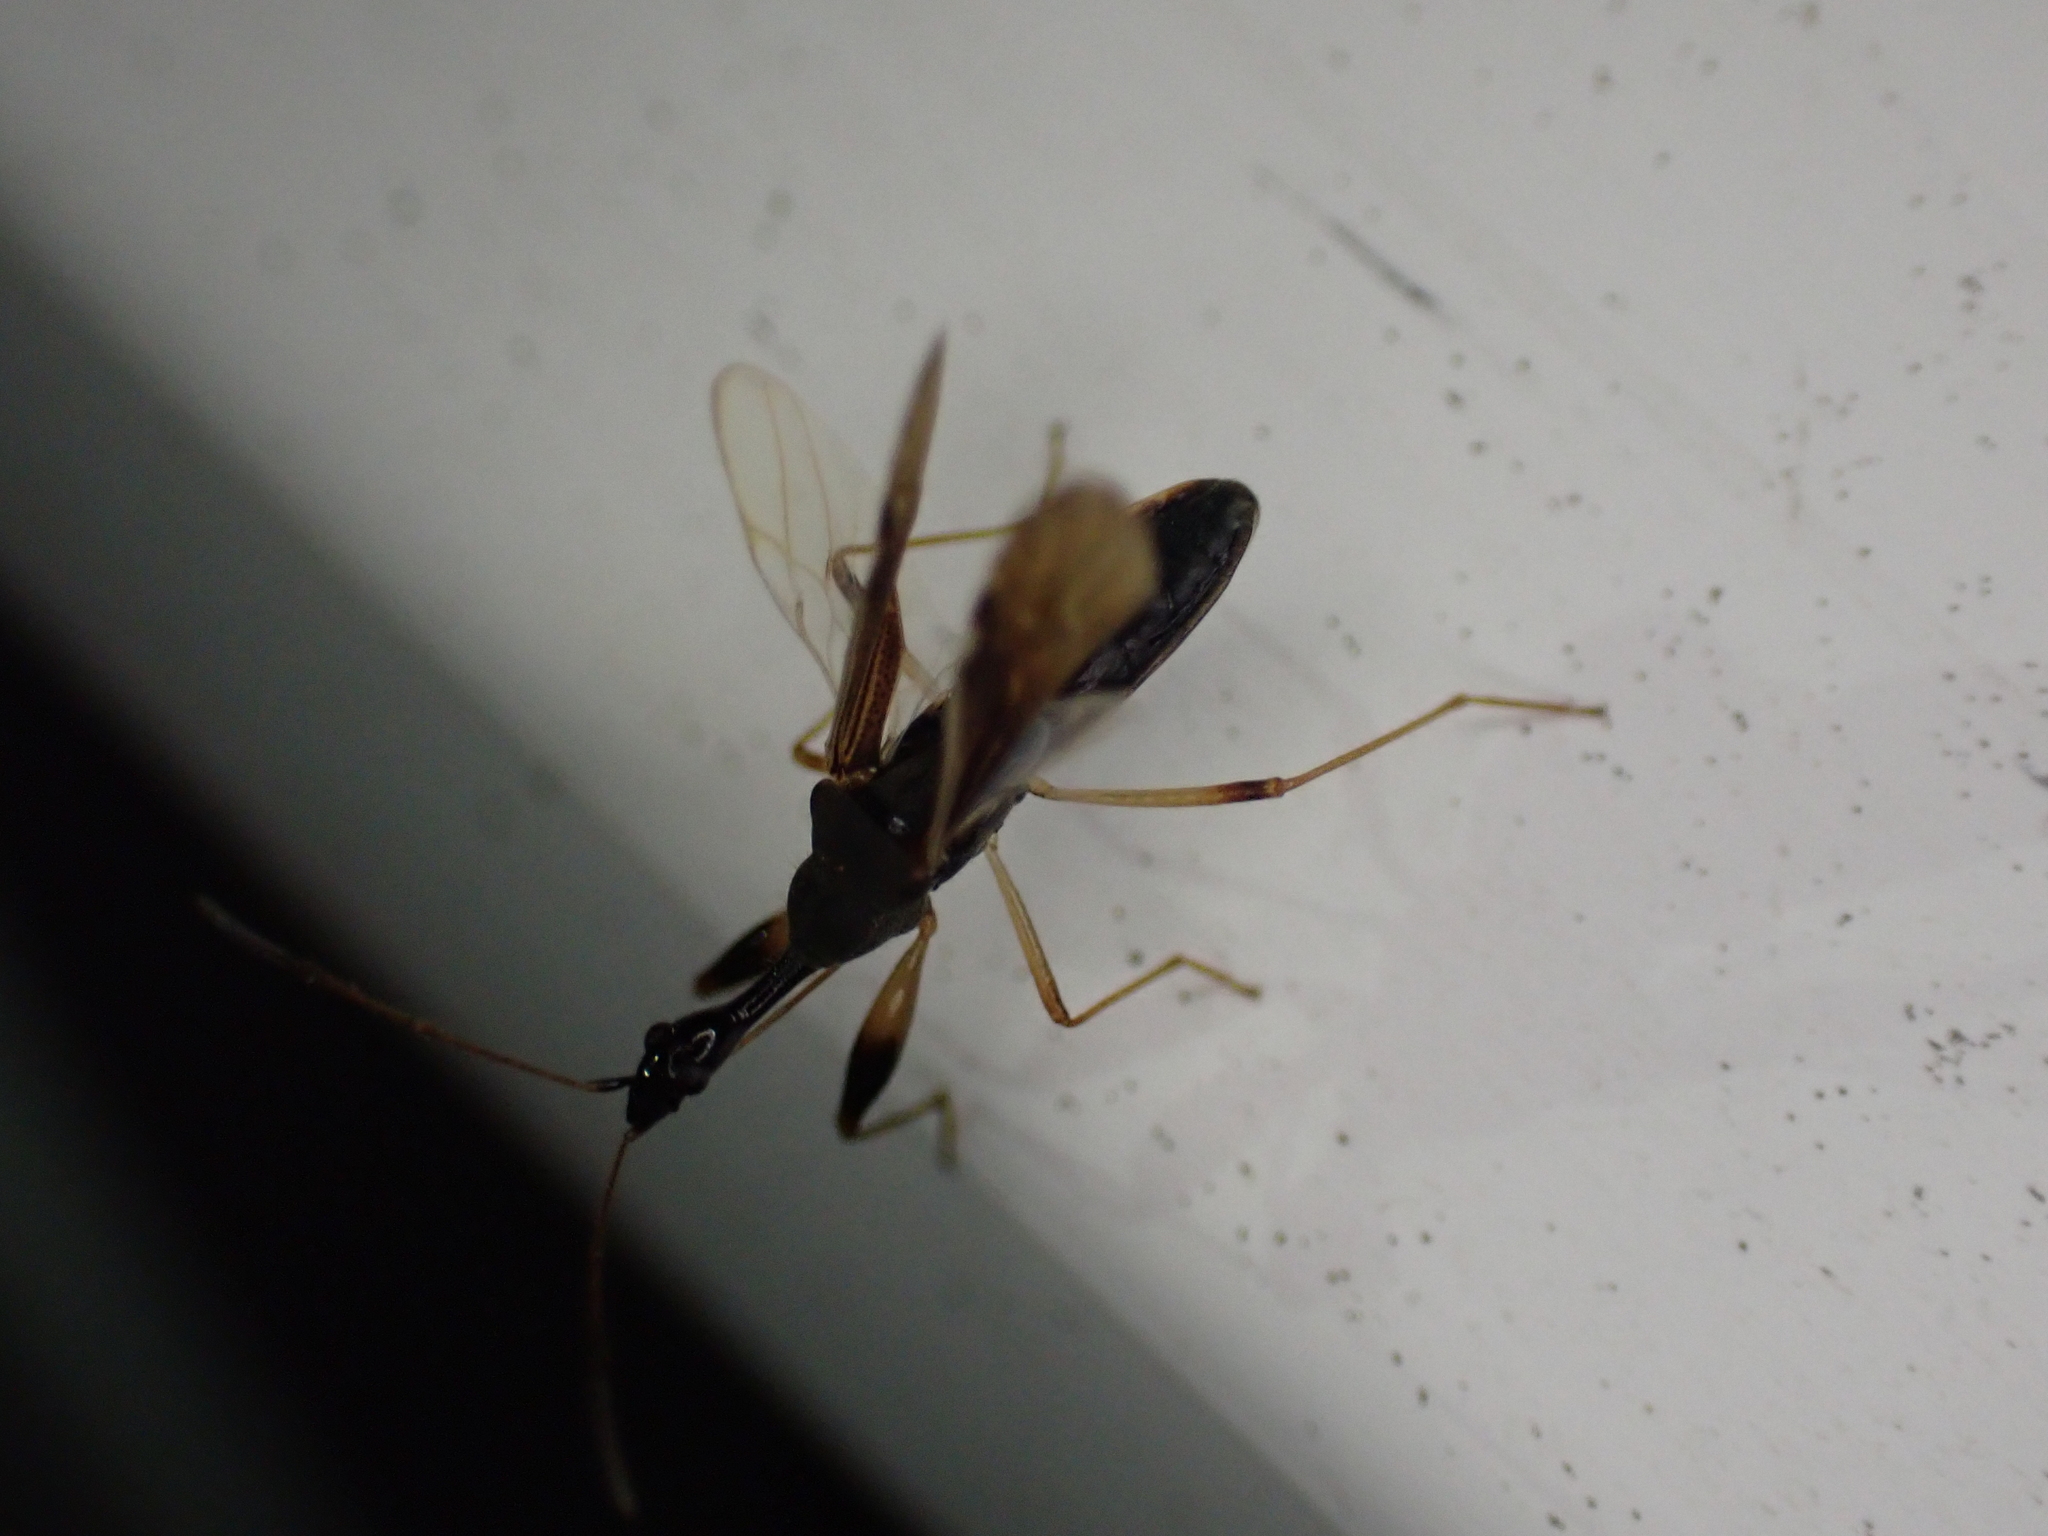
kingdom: Animalia
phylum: Arthropoda
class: Insecta
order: Hemiptera
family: Rhyparochromidae
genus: Myodocha
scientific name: Myodocha serripes
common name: Long-necked seed bug
